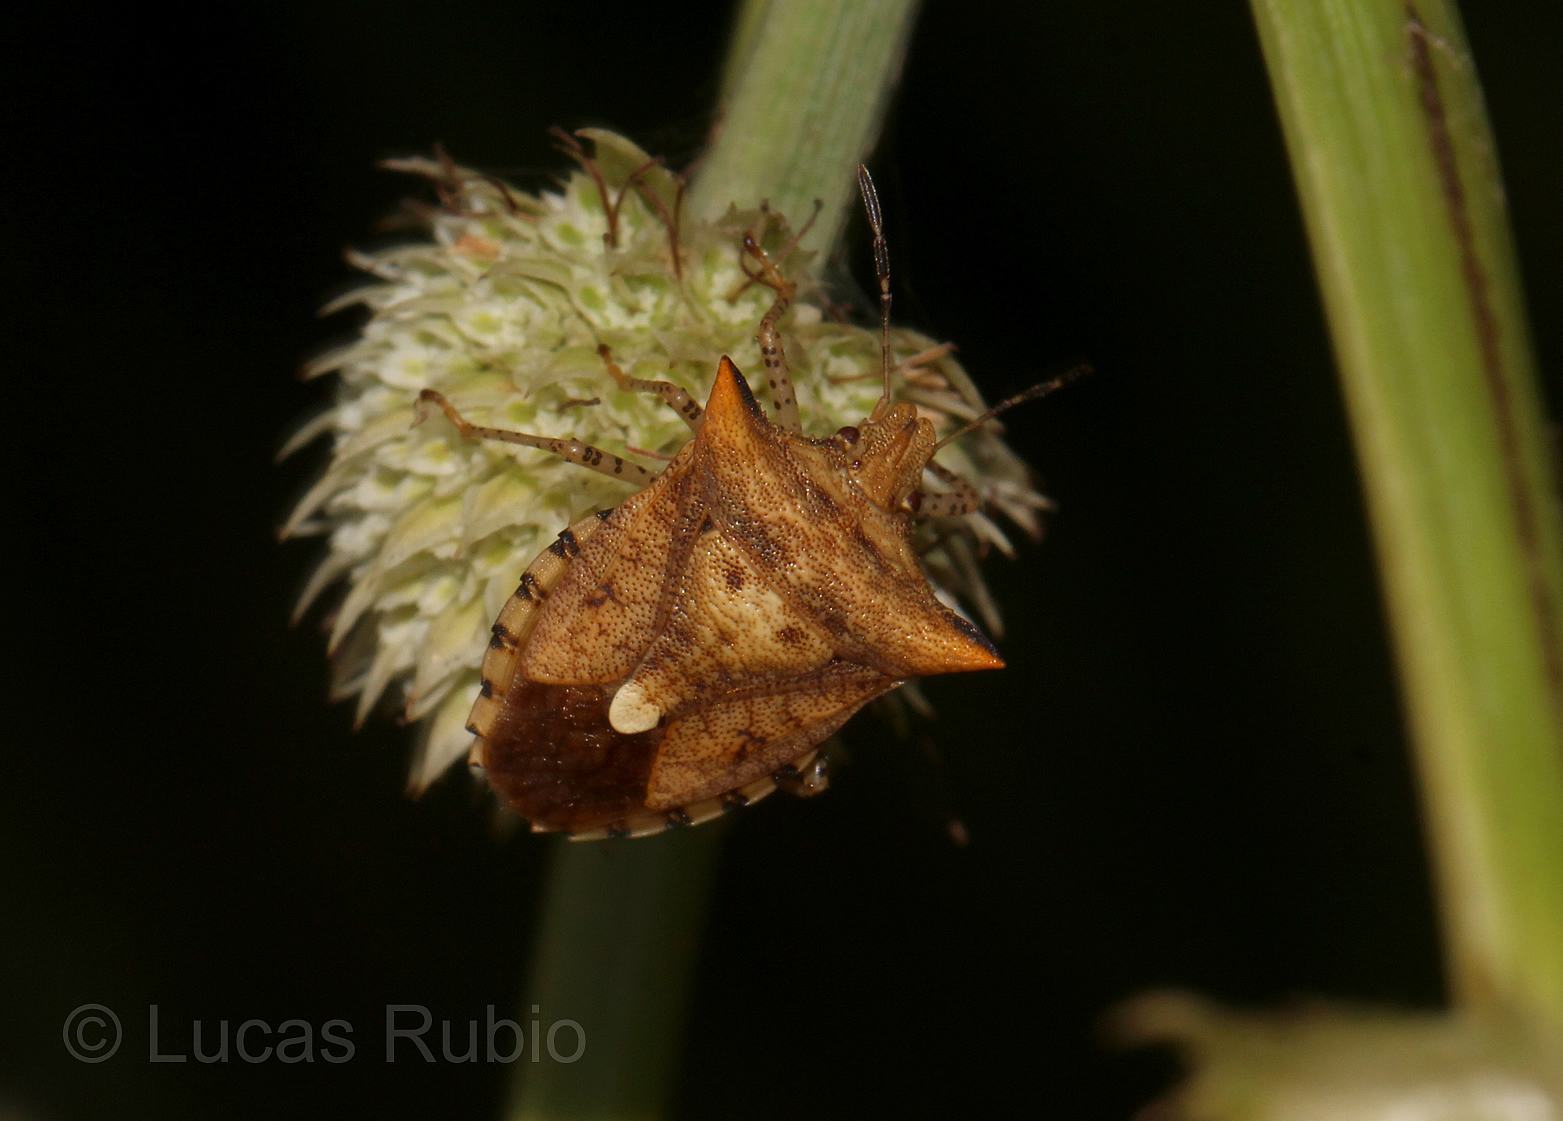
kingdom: Animalia
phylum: Arthropoda
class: Insecta
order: Hemiptera
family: Pentatomidae
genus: Adustonotus
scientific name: Adustonotus
